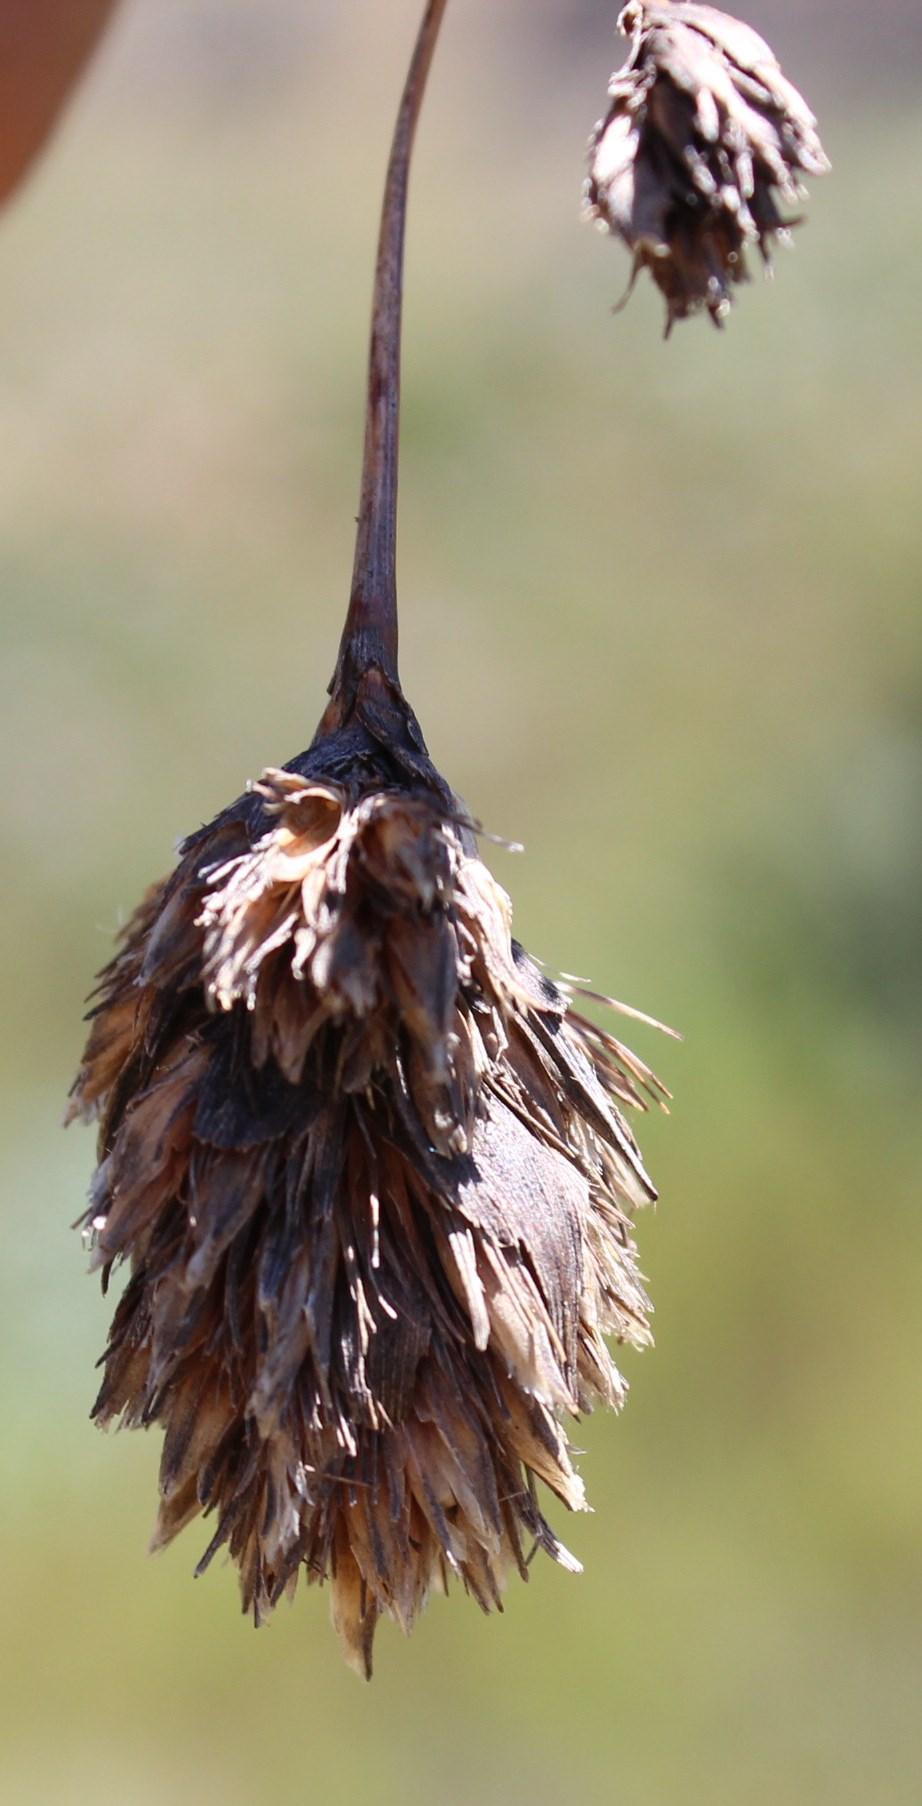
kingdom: Plantae
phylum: Tracheophyta
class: Liliopsida
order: Poales
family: Cyperaceae
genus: Tetraria
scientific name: Tetraria bromoides
